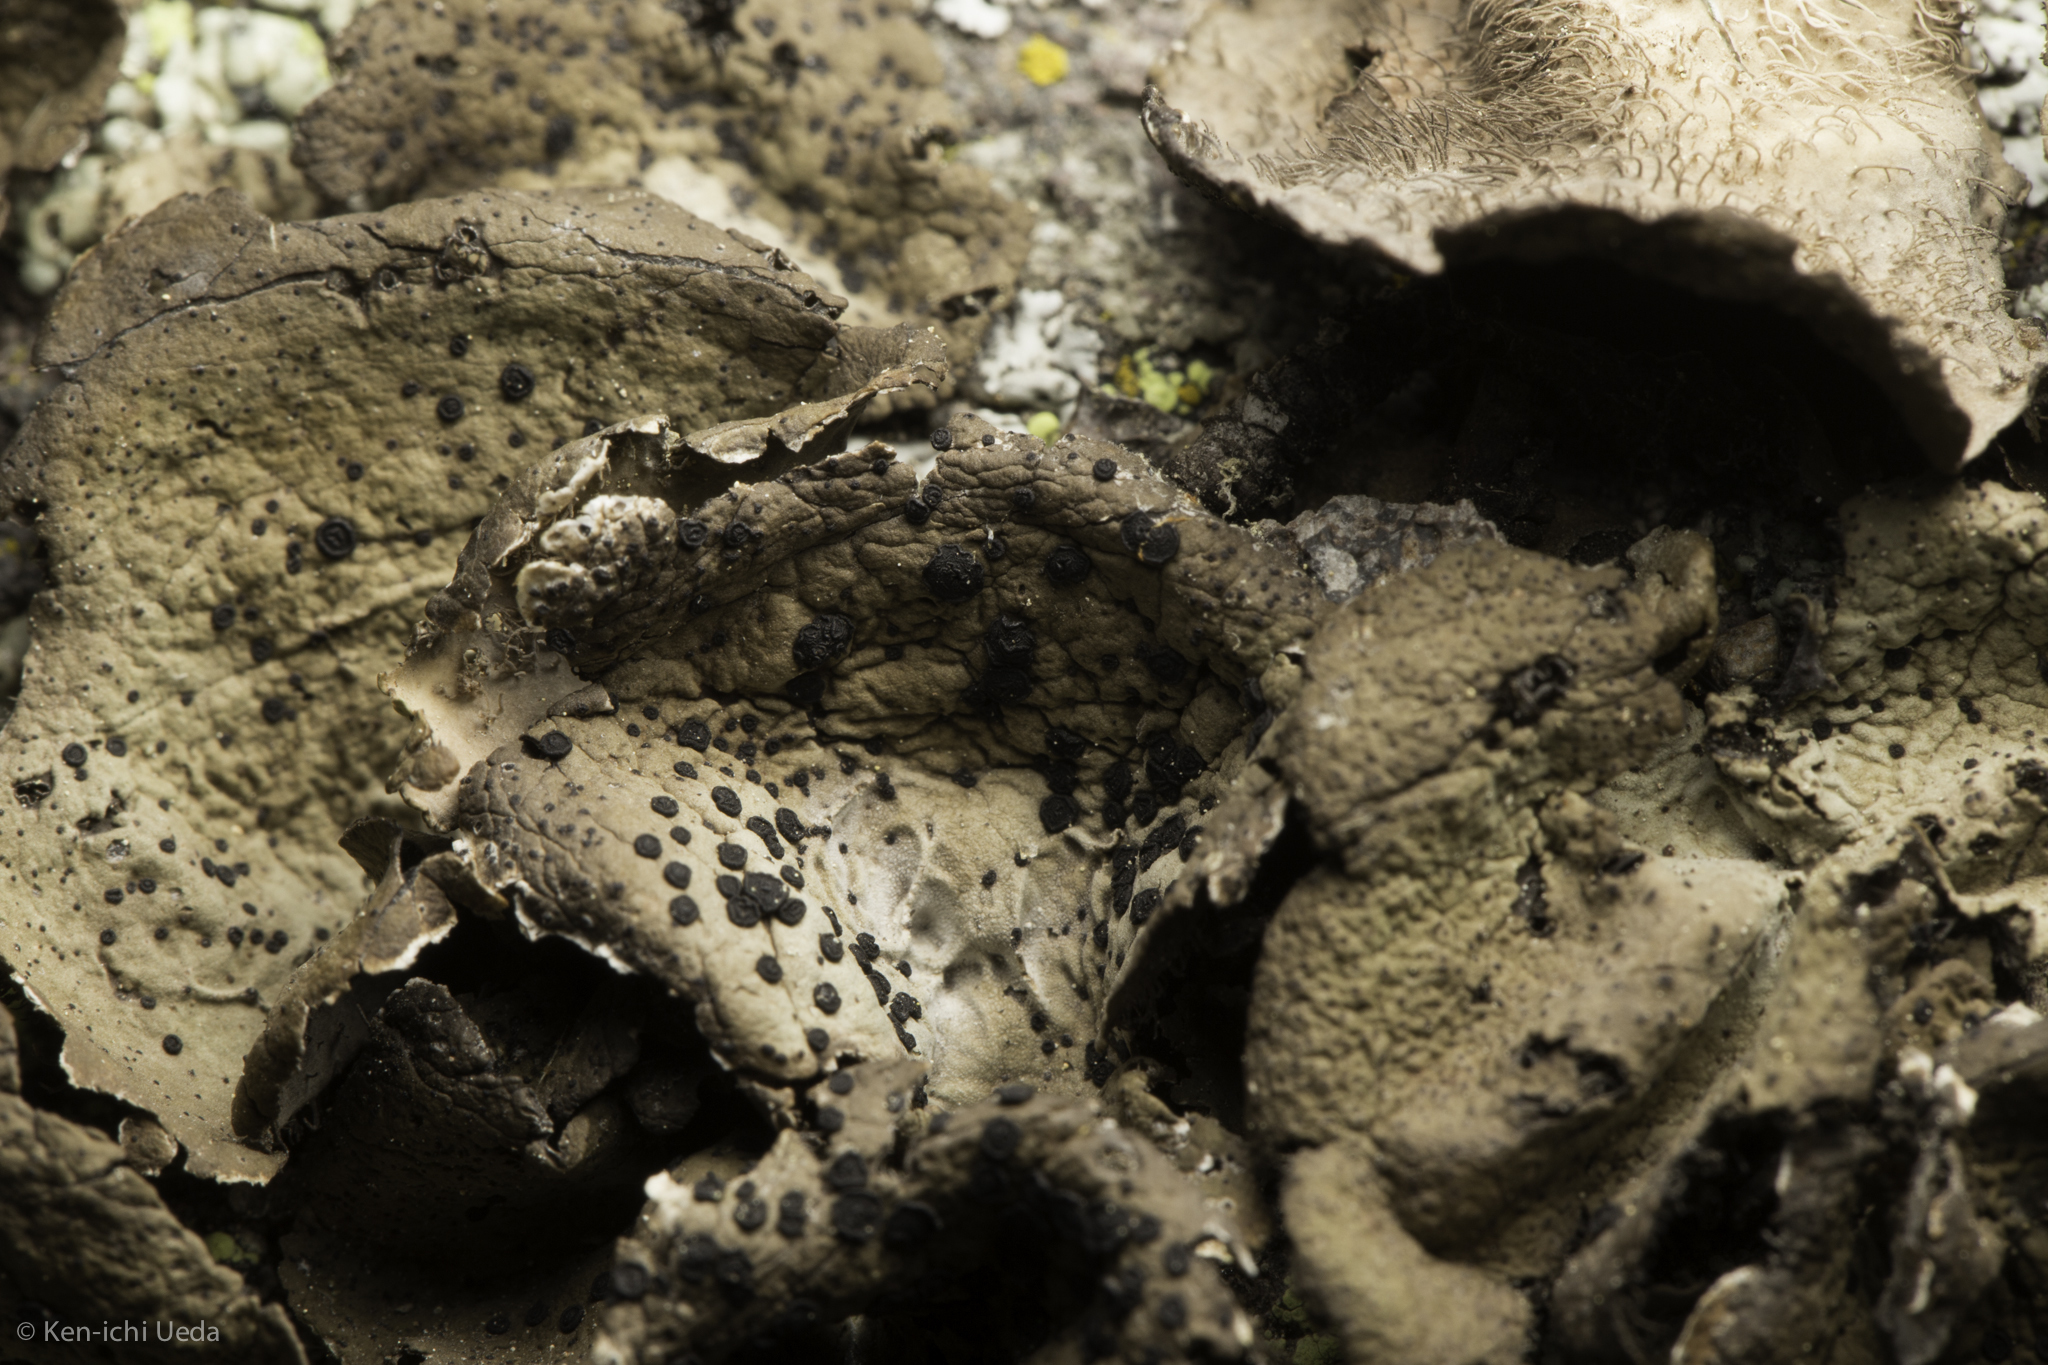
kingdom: Fungi
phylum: Ascomycota
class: Lecanoromycetes
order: Umbilicariales
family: Umbilicariaceae
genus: Umbilicaria
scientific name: Umbilicaria virginis
